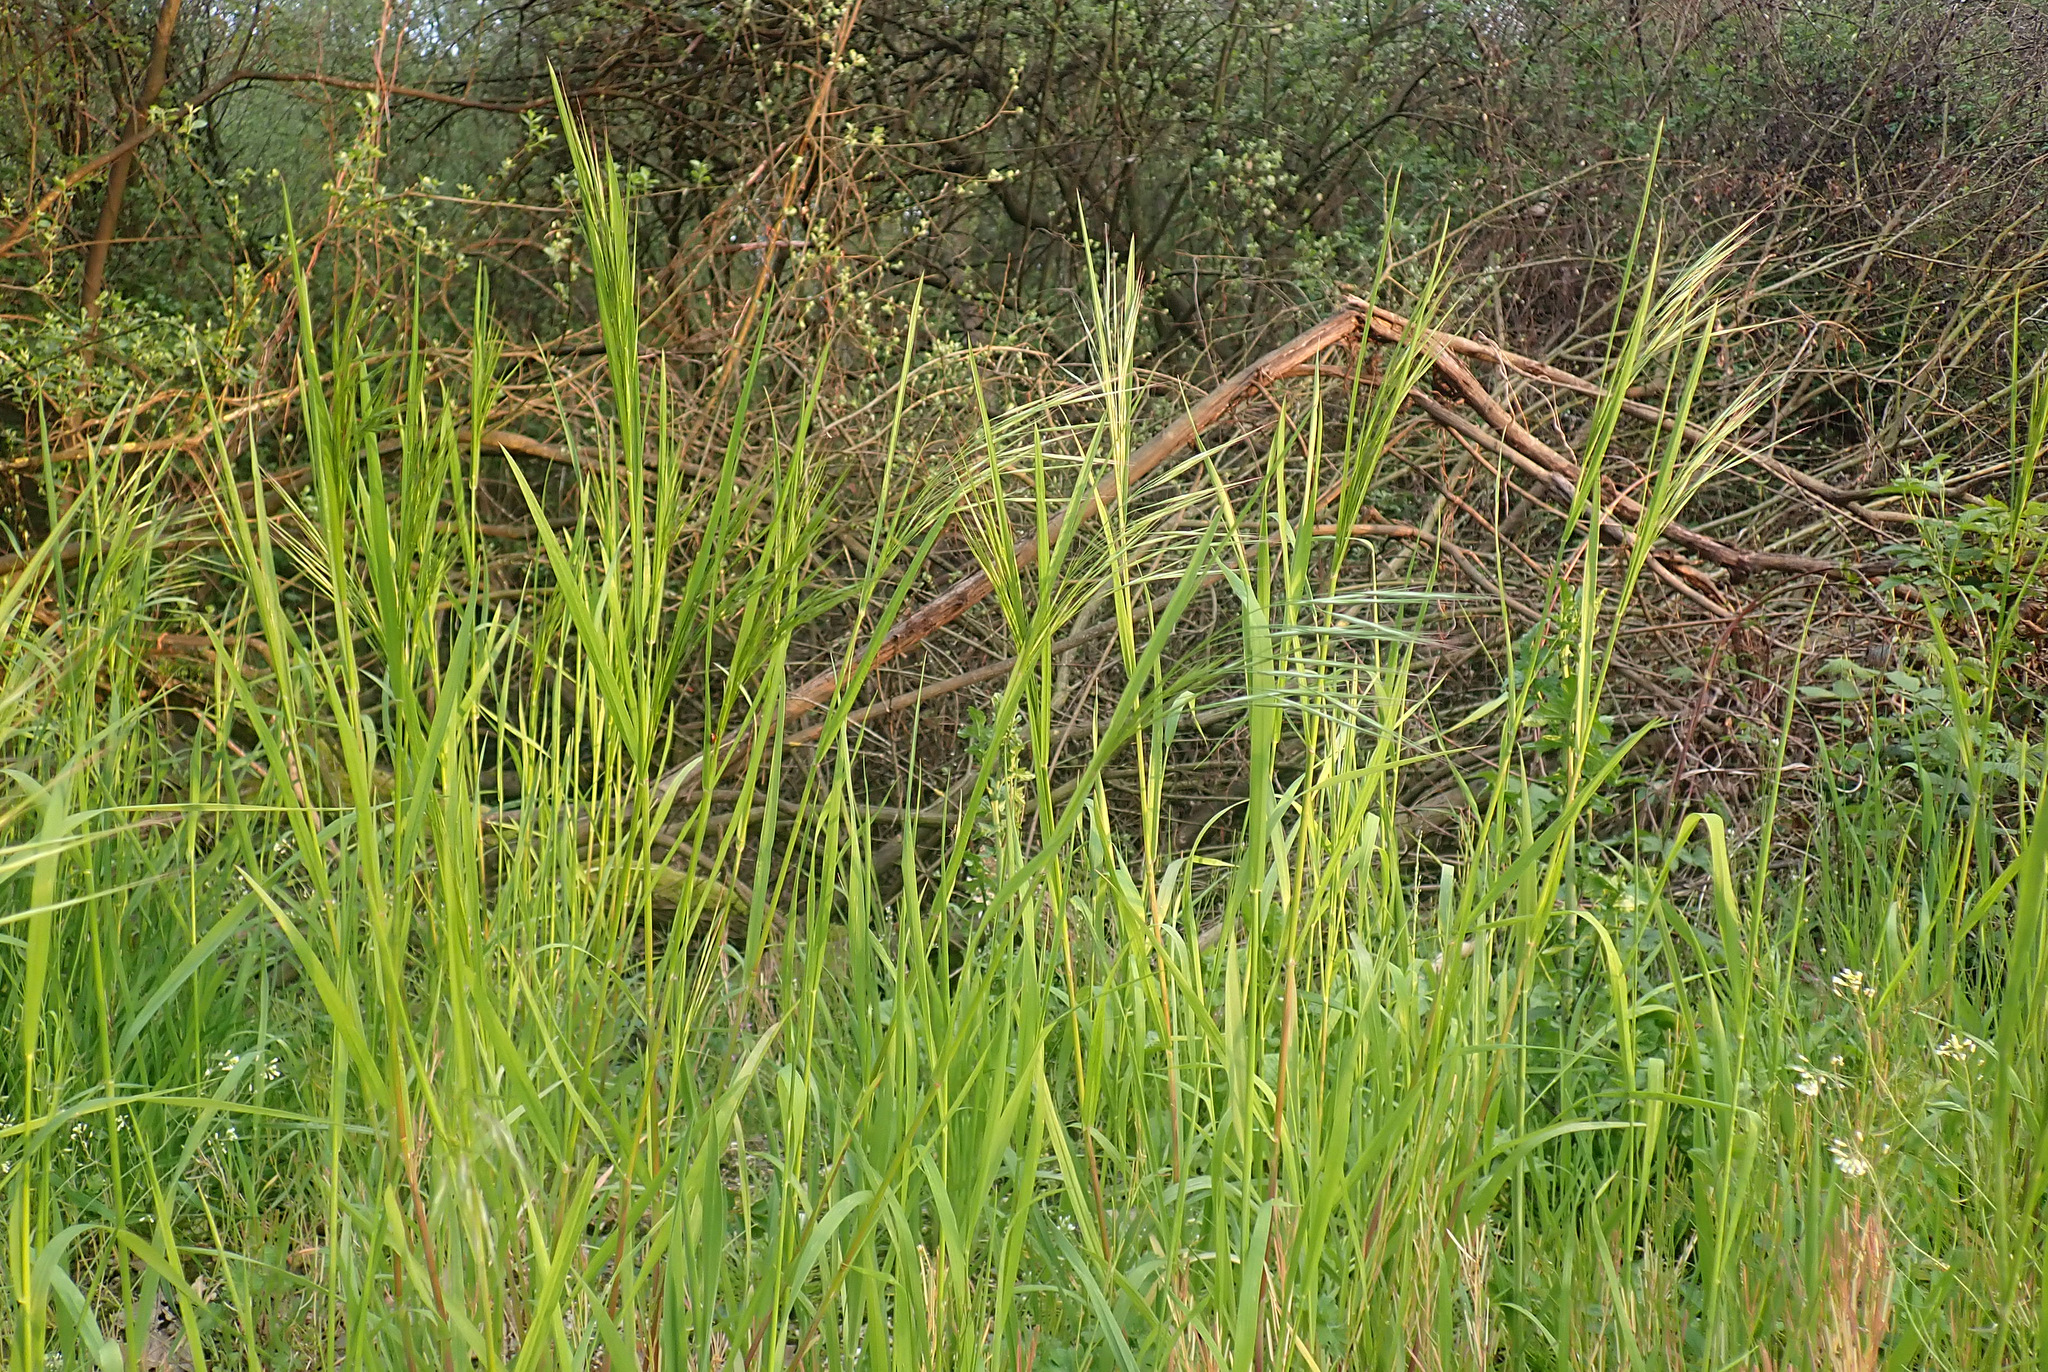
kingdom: Plantae
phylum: Tracheophyta
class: Liliopsida
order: Poales
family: Poaceae
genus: Bromus
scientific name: Bromus sterilis
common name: Poverty brome
